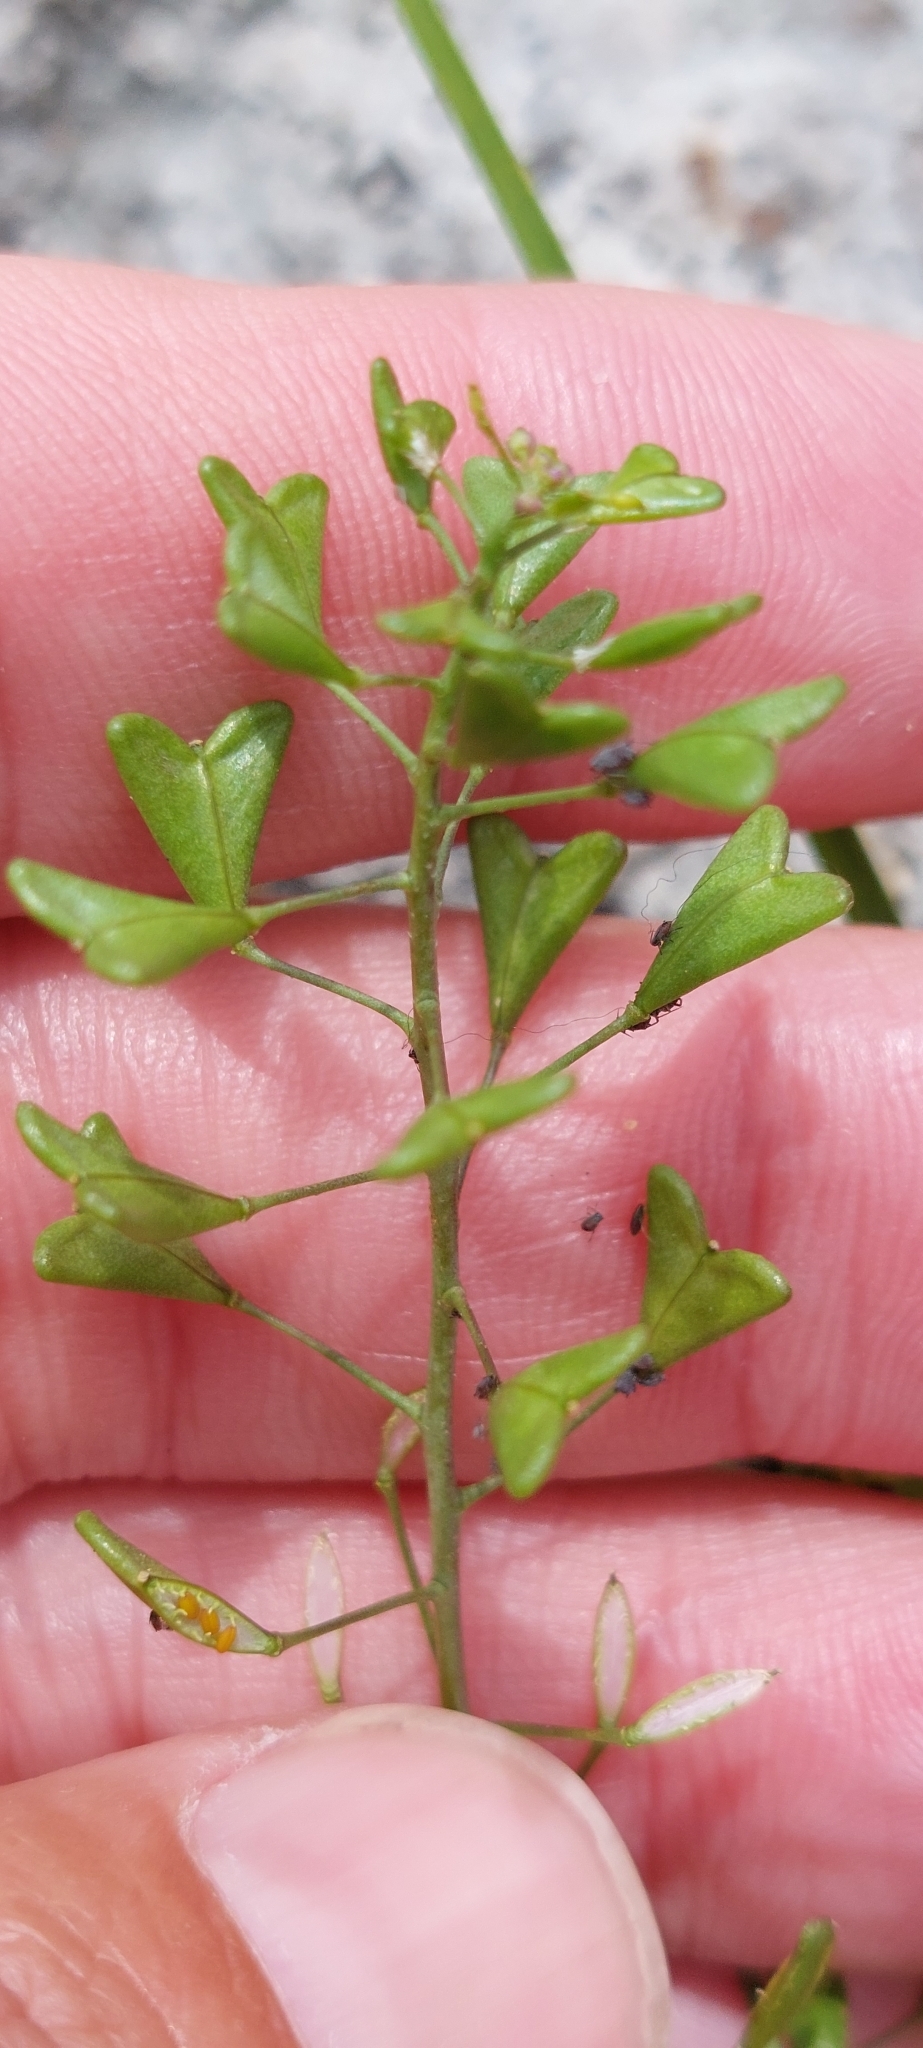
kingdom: Plantae
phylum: Tracheophyta
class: Magnoliopsida
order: Brassicales
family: Brassicaceae
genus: Capsella
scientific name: Capsella bursa-pastoris
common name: Shepherd's purse
